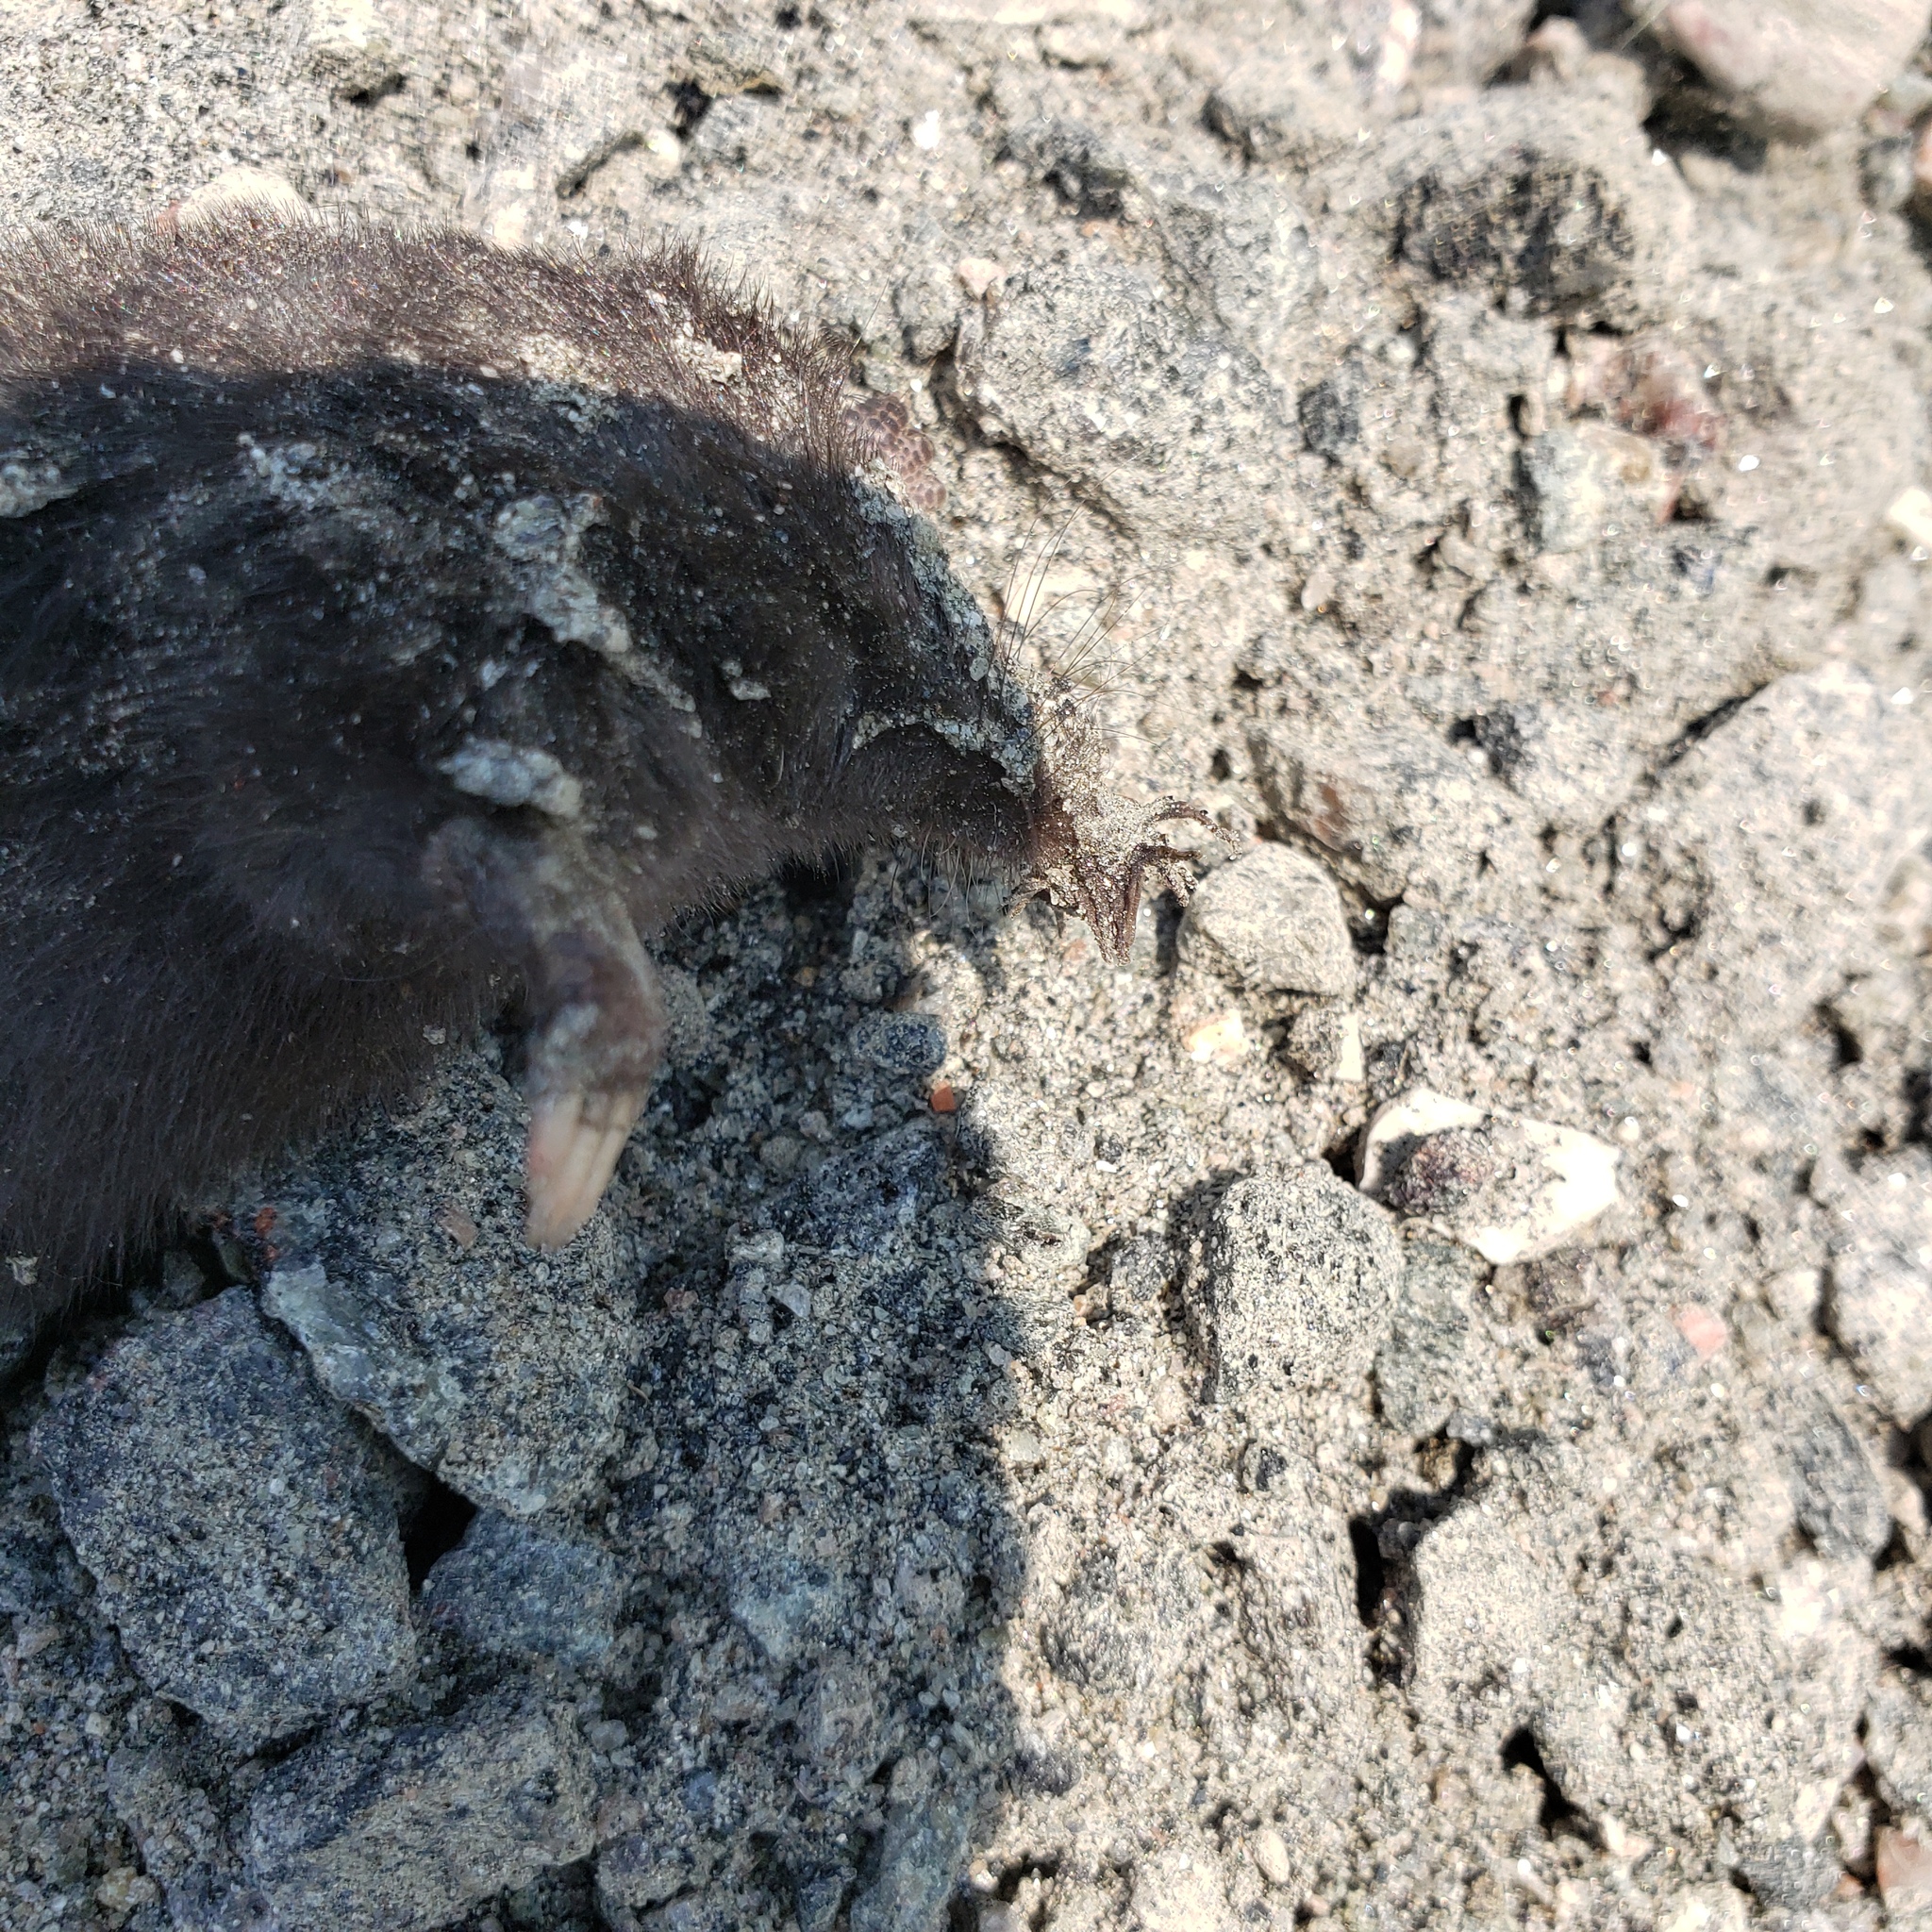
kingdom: Animalia
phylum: Chordata
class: Mammalia
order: Soricomorpha
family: Talpidae
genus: Condylura
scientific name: Condylura cristata
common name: Star-nosed mole
